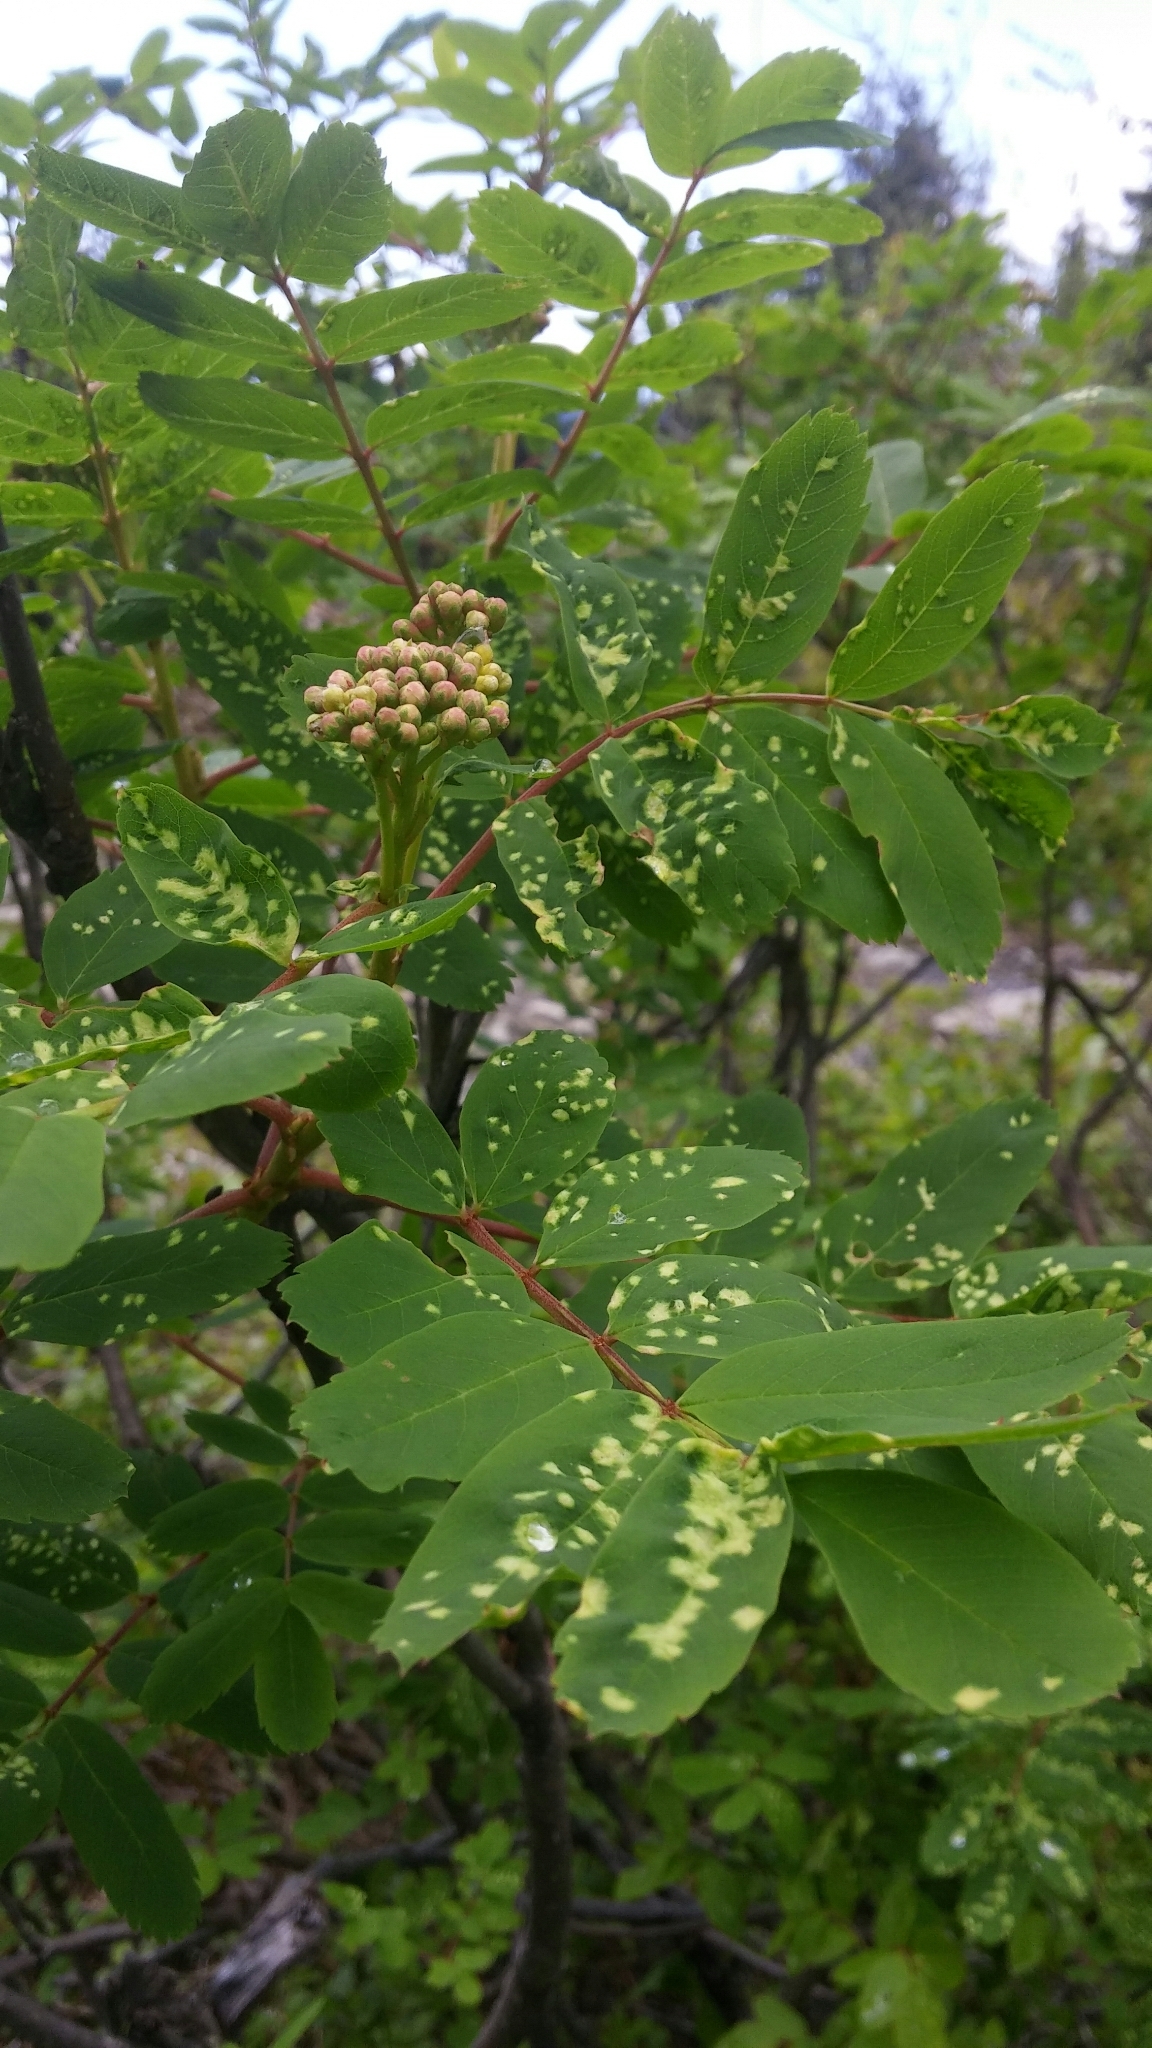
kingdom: Plantae
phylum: Tracheophyta
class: Magnoliopsida
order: Rosales
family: Rosaceae
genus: Sorbus
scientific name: Sorbus sitchensis
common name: Sitka mountain-ash
